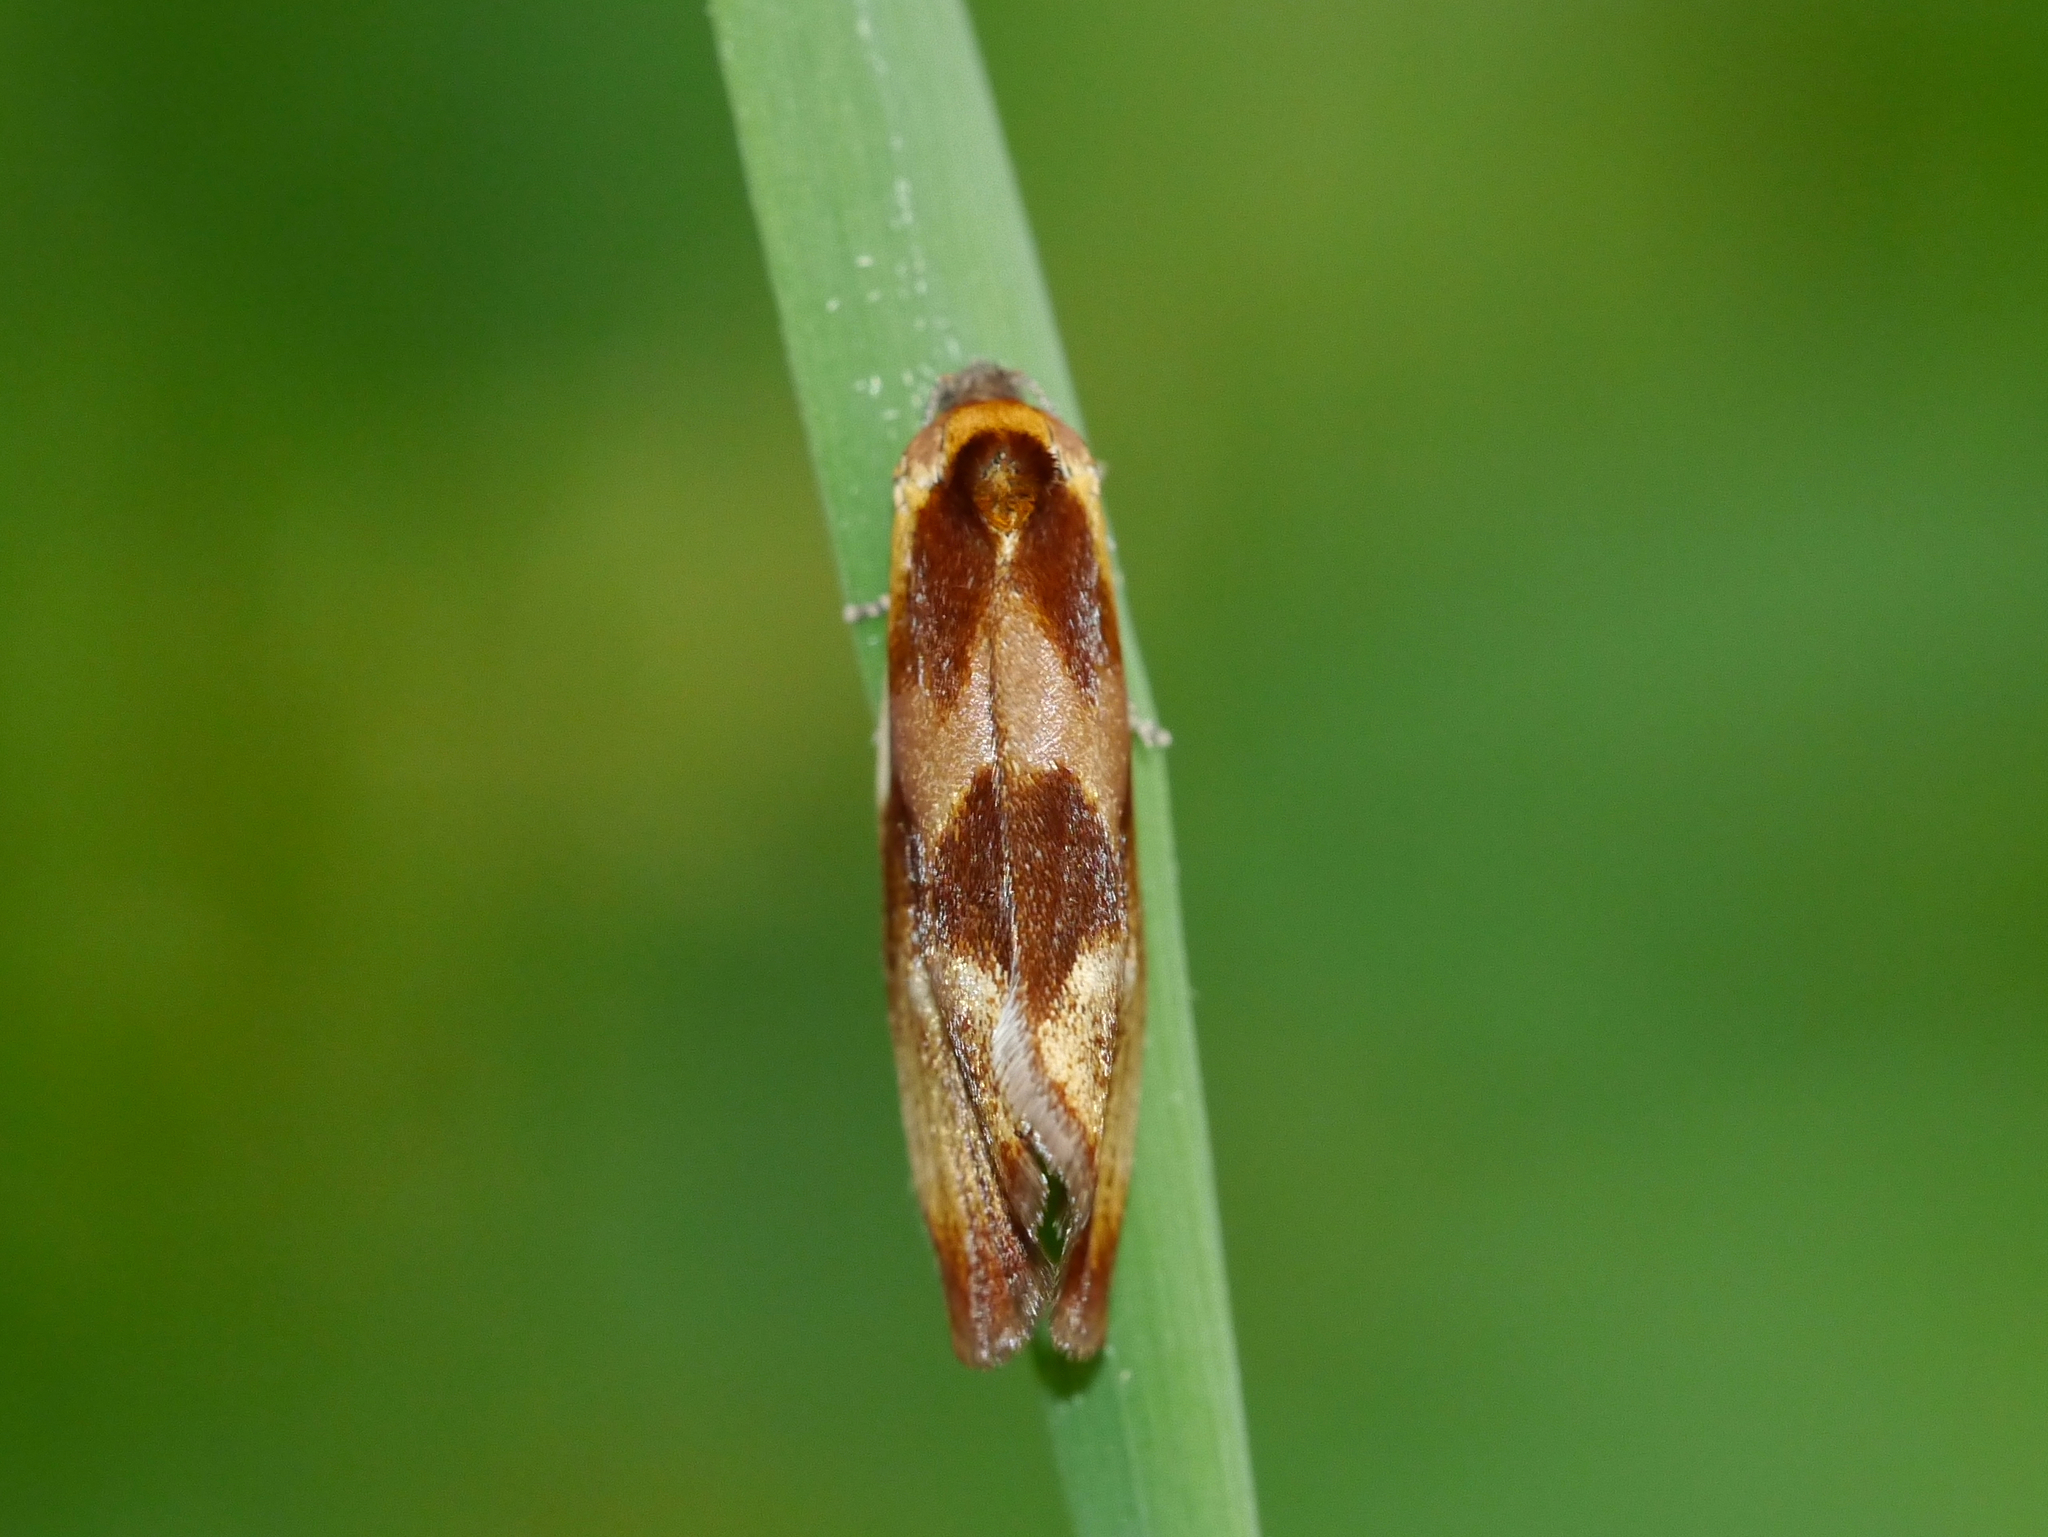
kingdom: Animalia
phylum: Arthropoda
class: Insecta
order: Lepidoptera
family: Tortricidae
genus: Eulia
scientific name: Eulia ministrana
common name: Brassy twist
